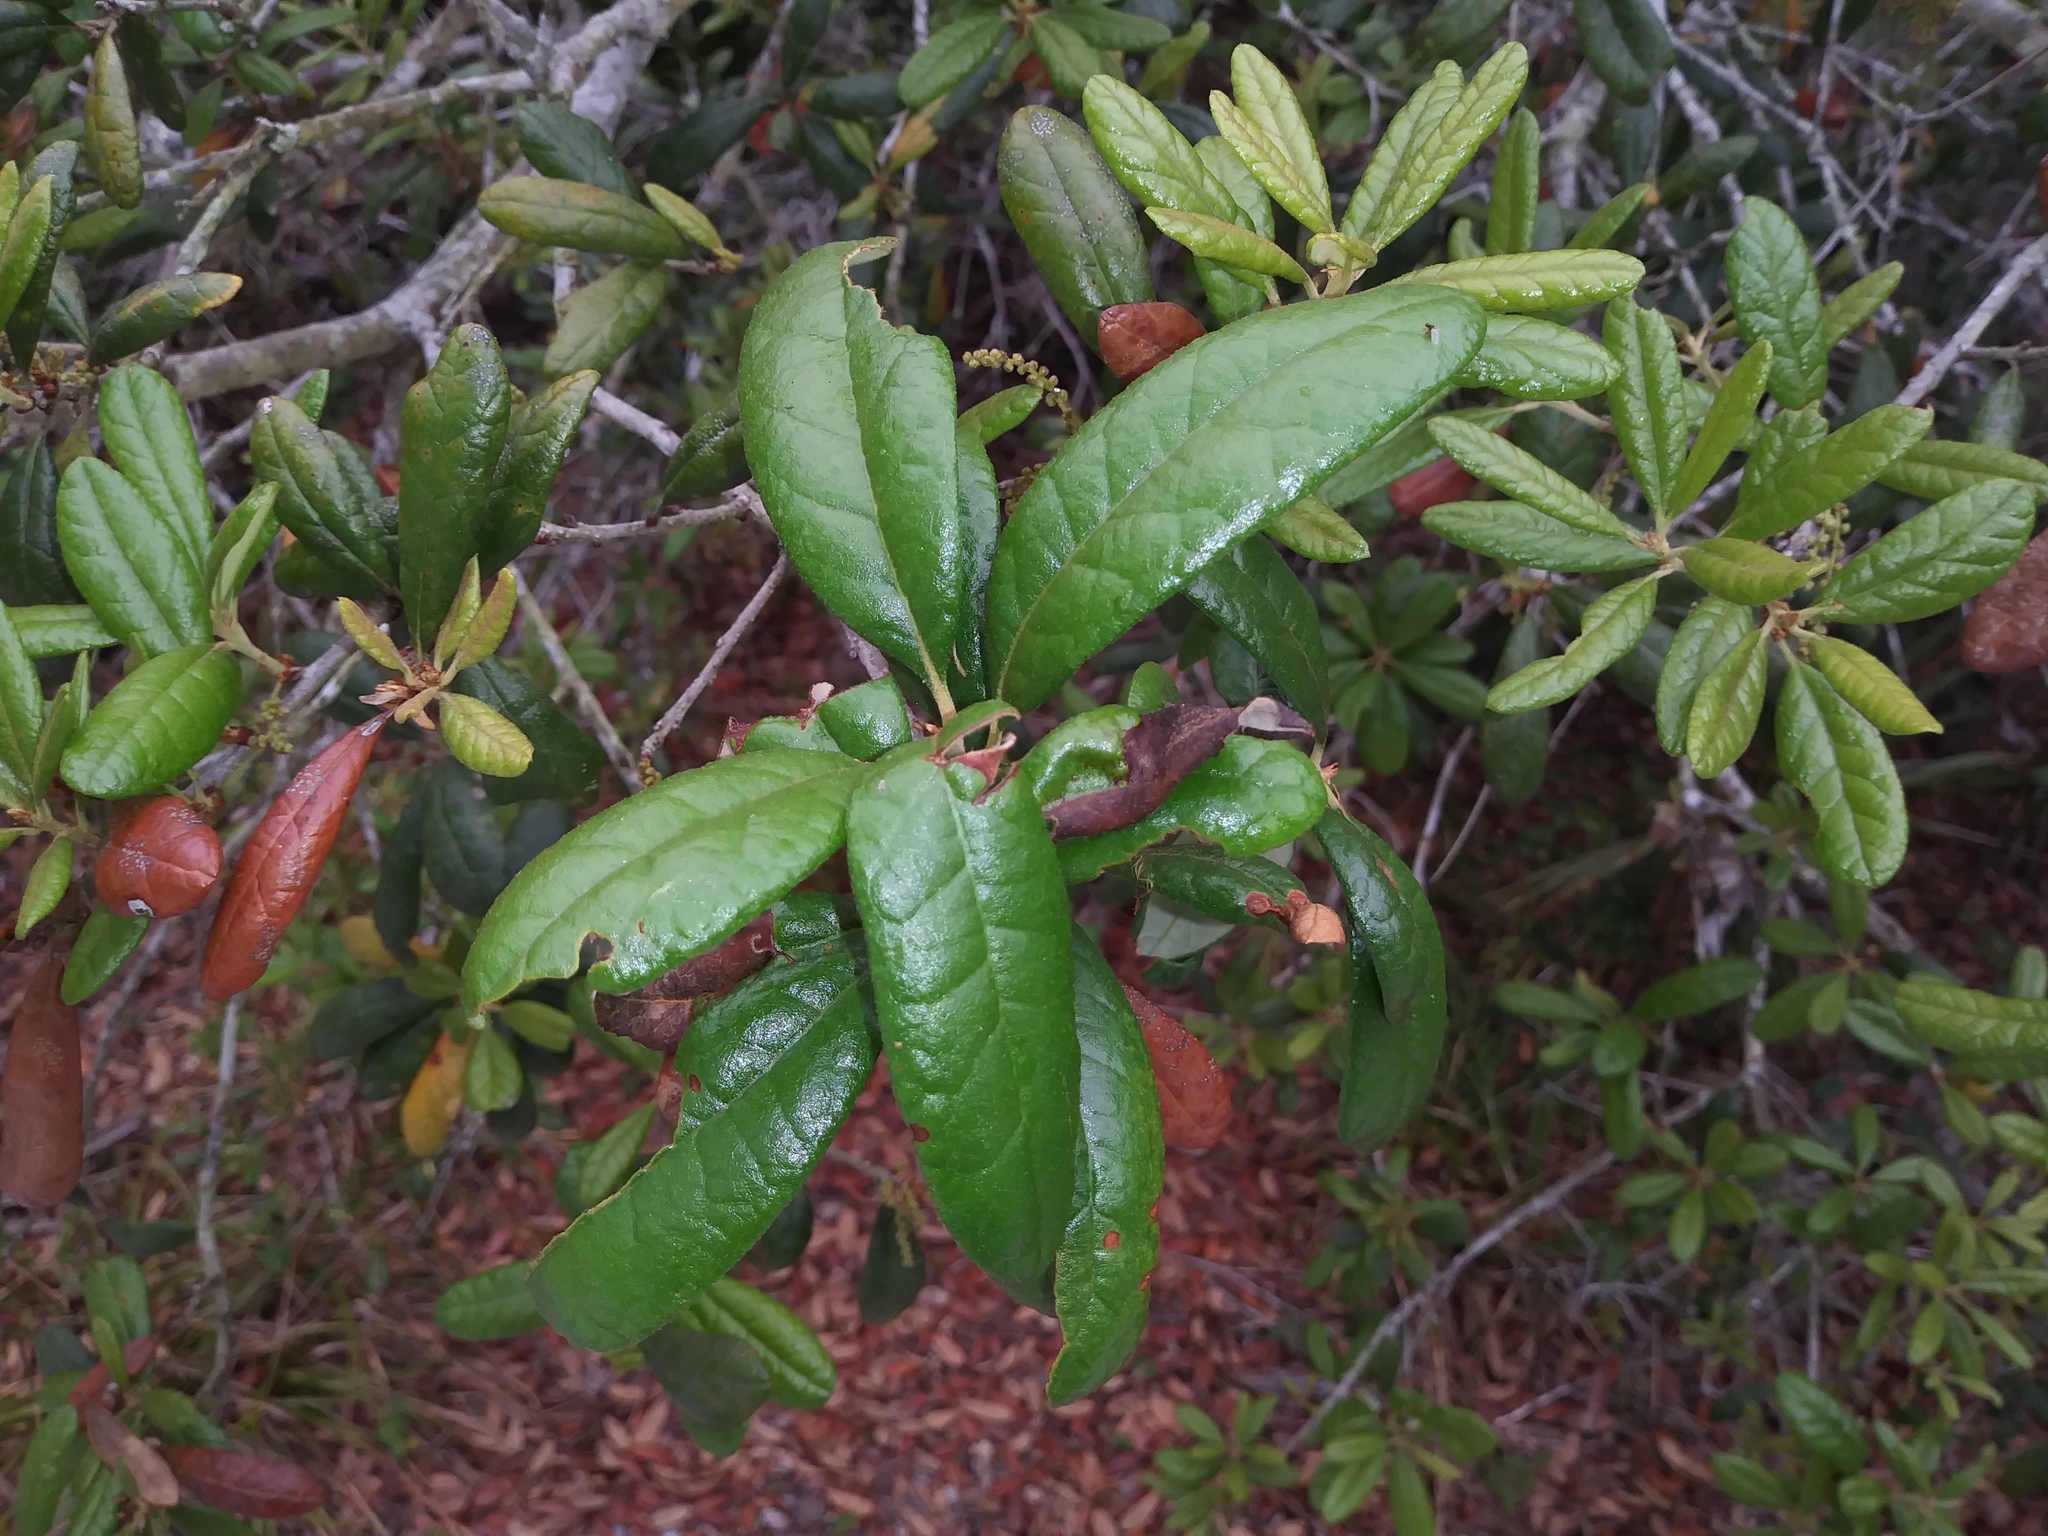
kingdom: Plantae
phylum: Tracheophyta
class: Magnoliopsida
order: Fagales
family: Fagaceae
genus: Quercus
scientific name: Quercus geminata
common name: Sand live oak
